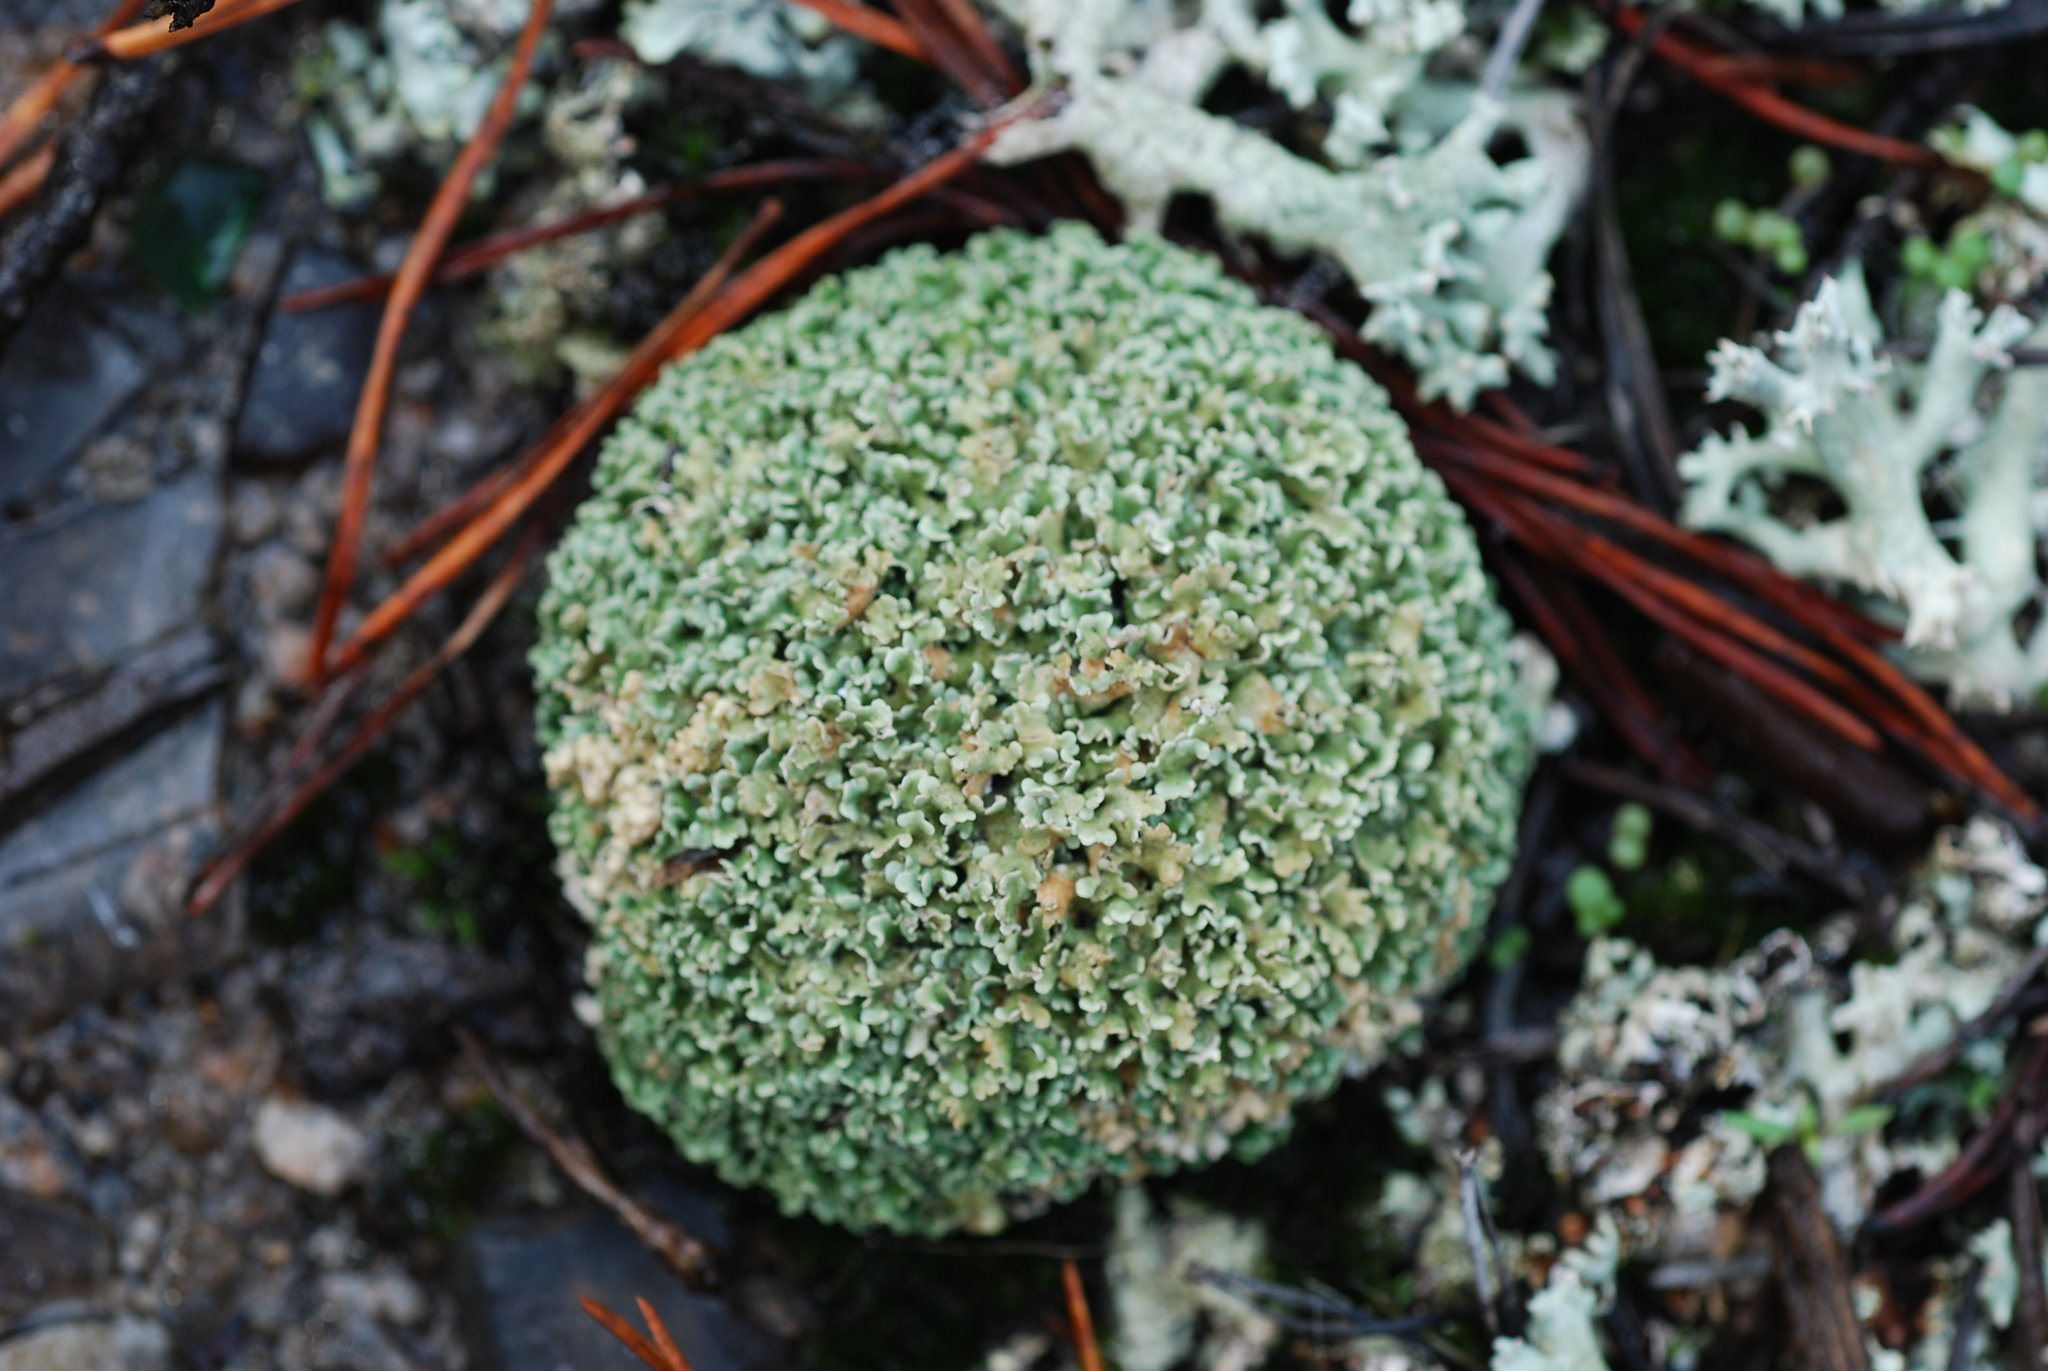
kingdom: Fungi
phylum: Ascomycota
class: Lecanoromycetes
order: Lecanorales
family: Cladoniaceae
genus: Cladonia
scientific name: Cladonia strepsilis
